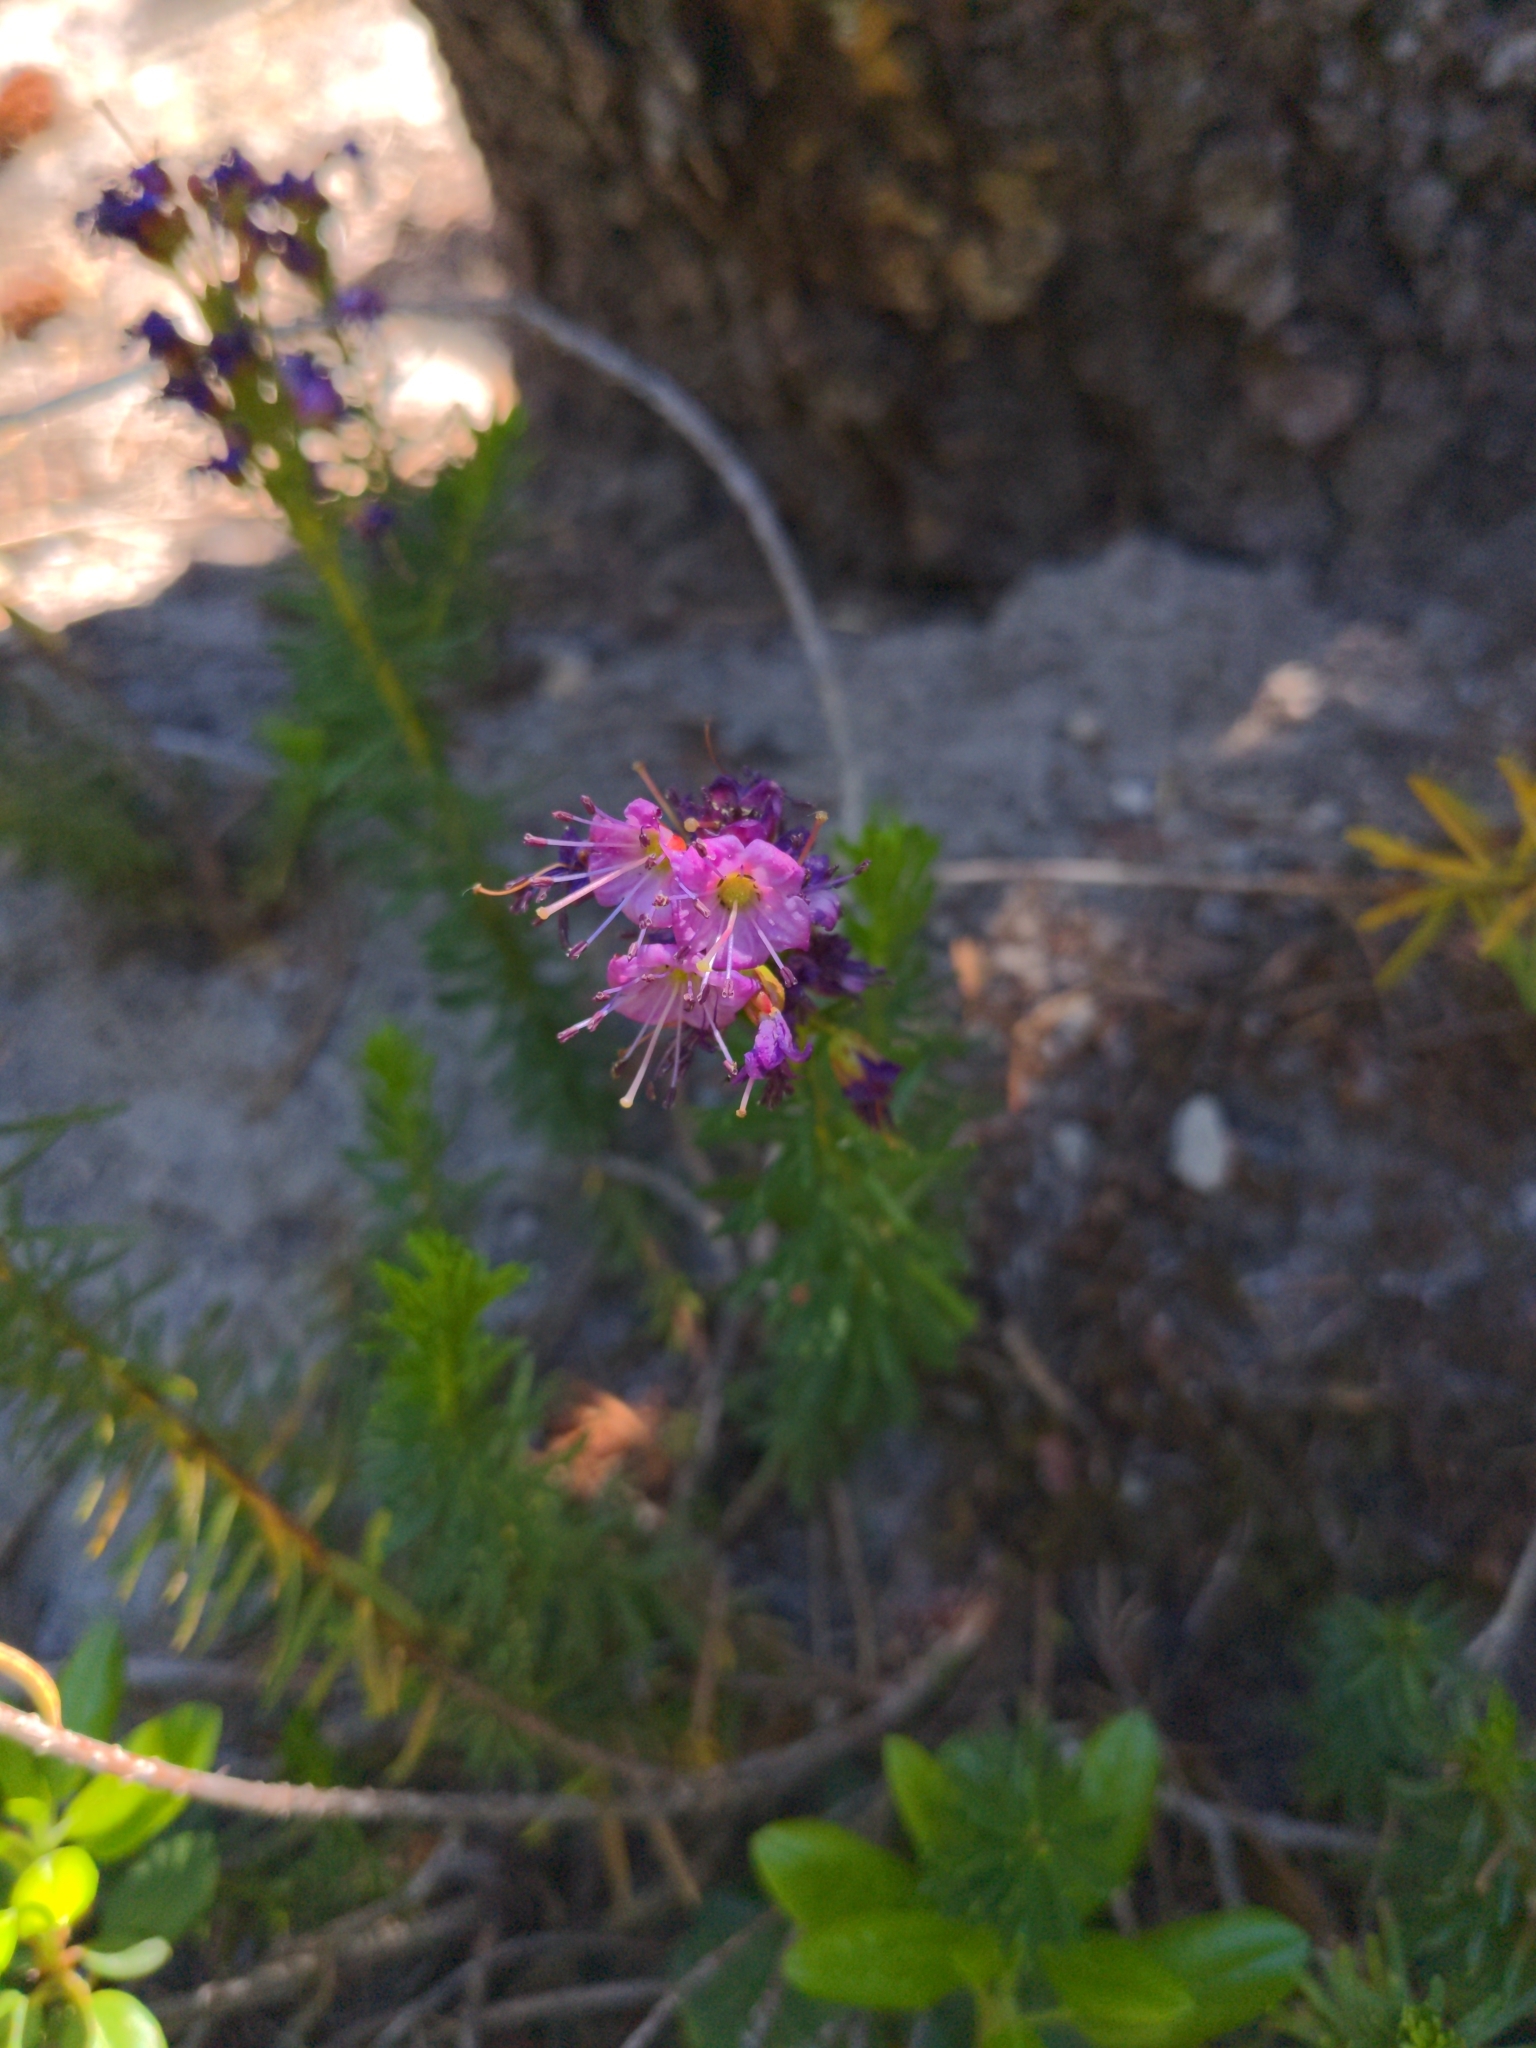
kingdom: Plantae
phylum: Tracheophyta
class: Magnoliopsida
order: Ericales
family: Ericaceae
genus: Phyllodoce
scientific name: Phyllodoce breweri
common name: Brewer's mountain-heather
